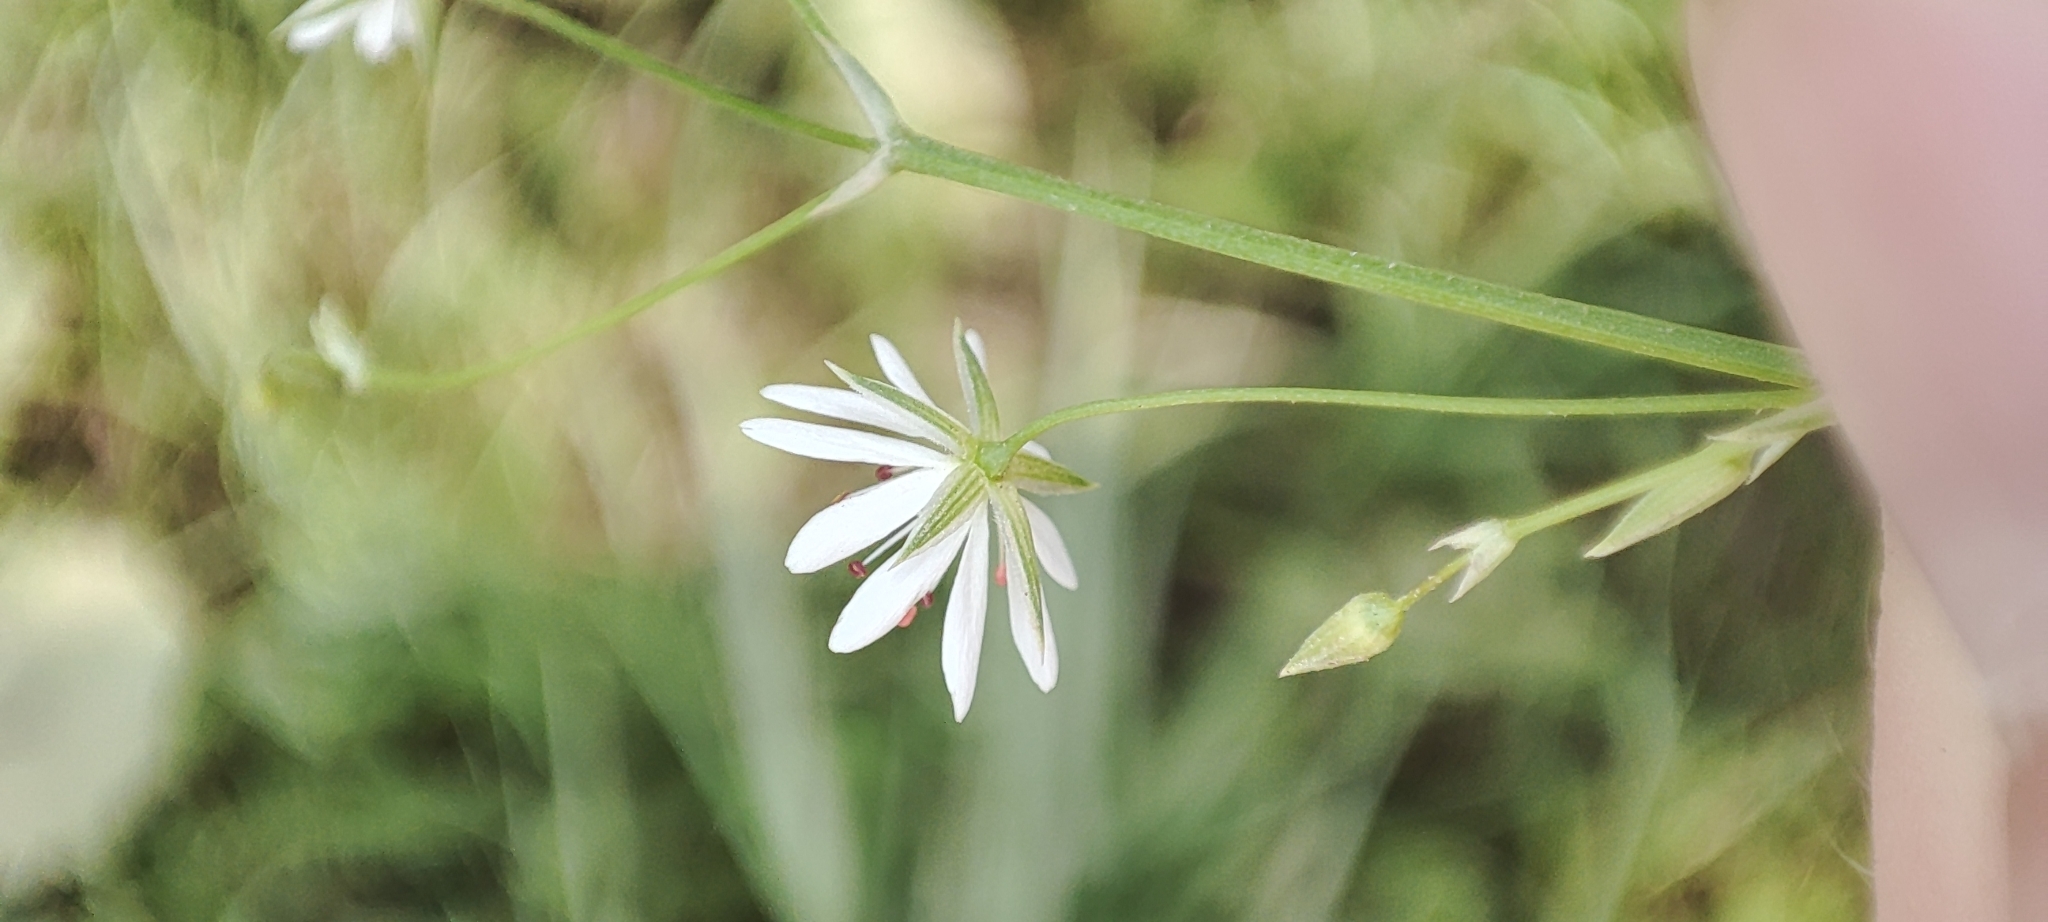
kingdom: Plantae
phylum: Tracheophyta
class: Magnoliopsida
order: Caryophyllales
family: Caryophyllaceae
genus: Stellaria
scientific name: Stellaria graminea
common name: Grass-like starwort
